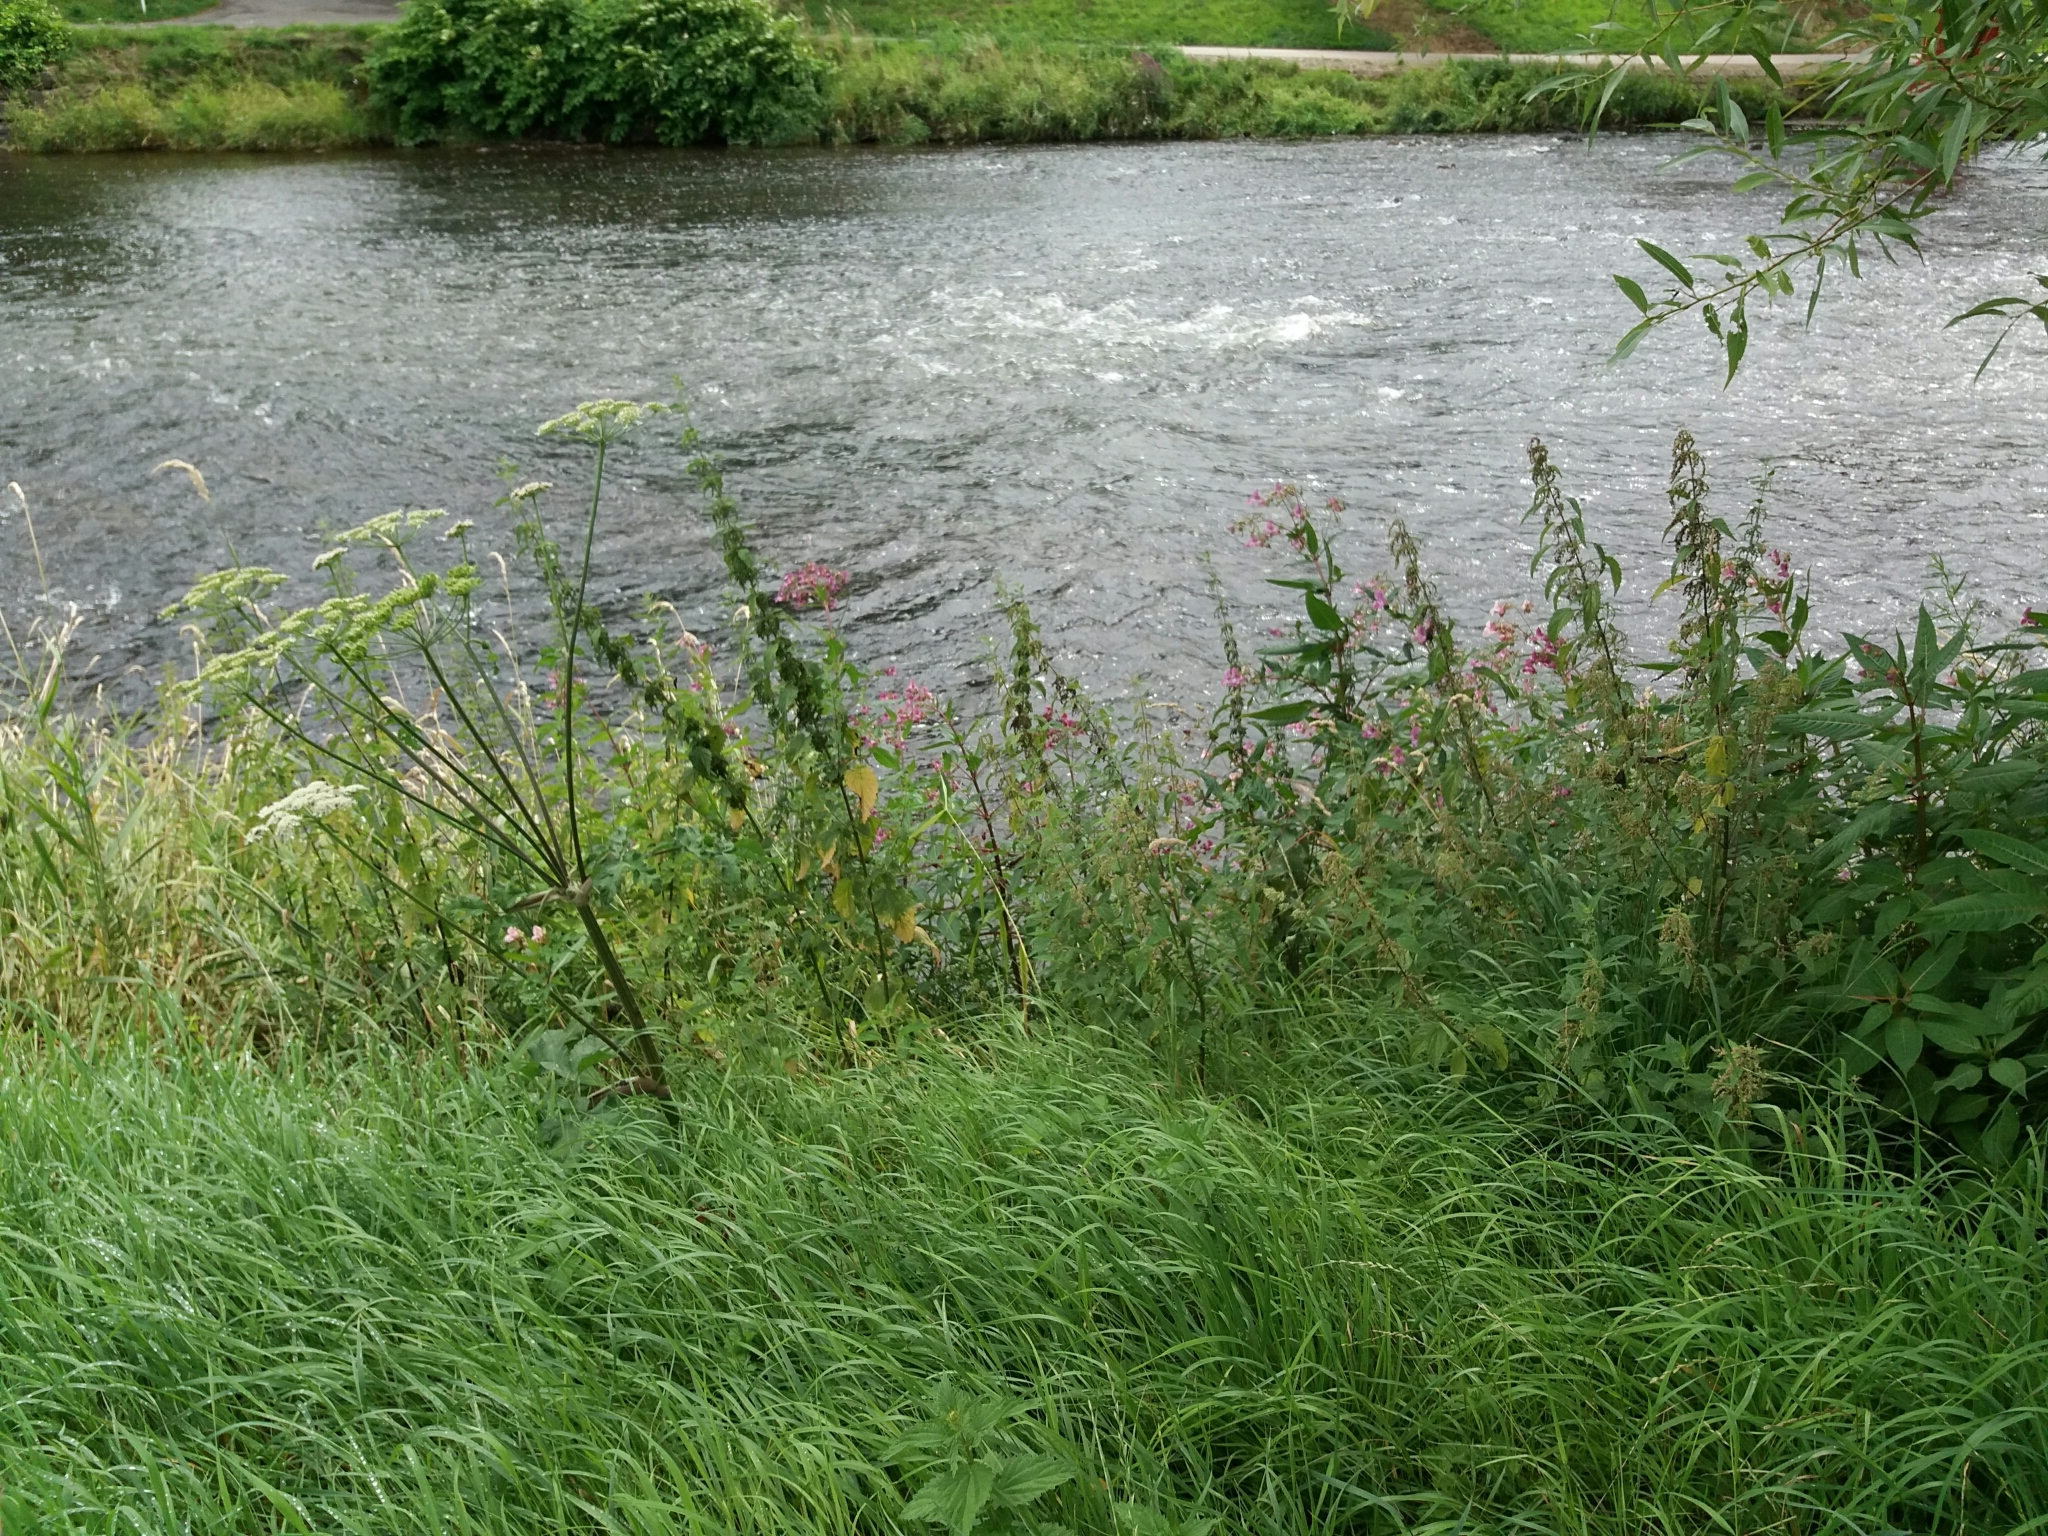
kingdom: Plantae
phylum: Tracheophyta
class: Magnoliopsida
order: Ericales
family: Balsaminaceae
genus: Impatiens
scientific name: Impatiens glandulifera
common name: Himalayan balsam
